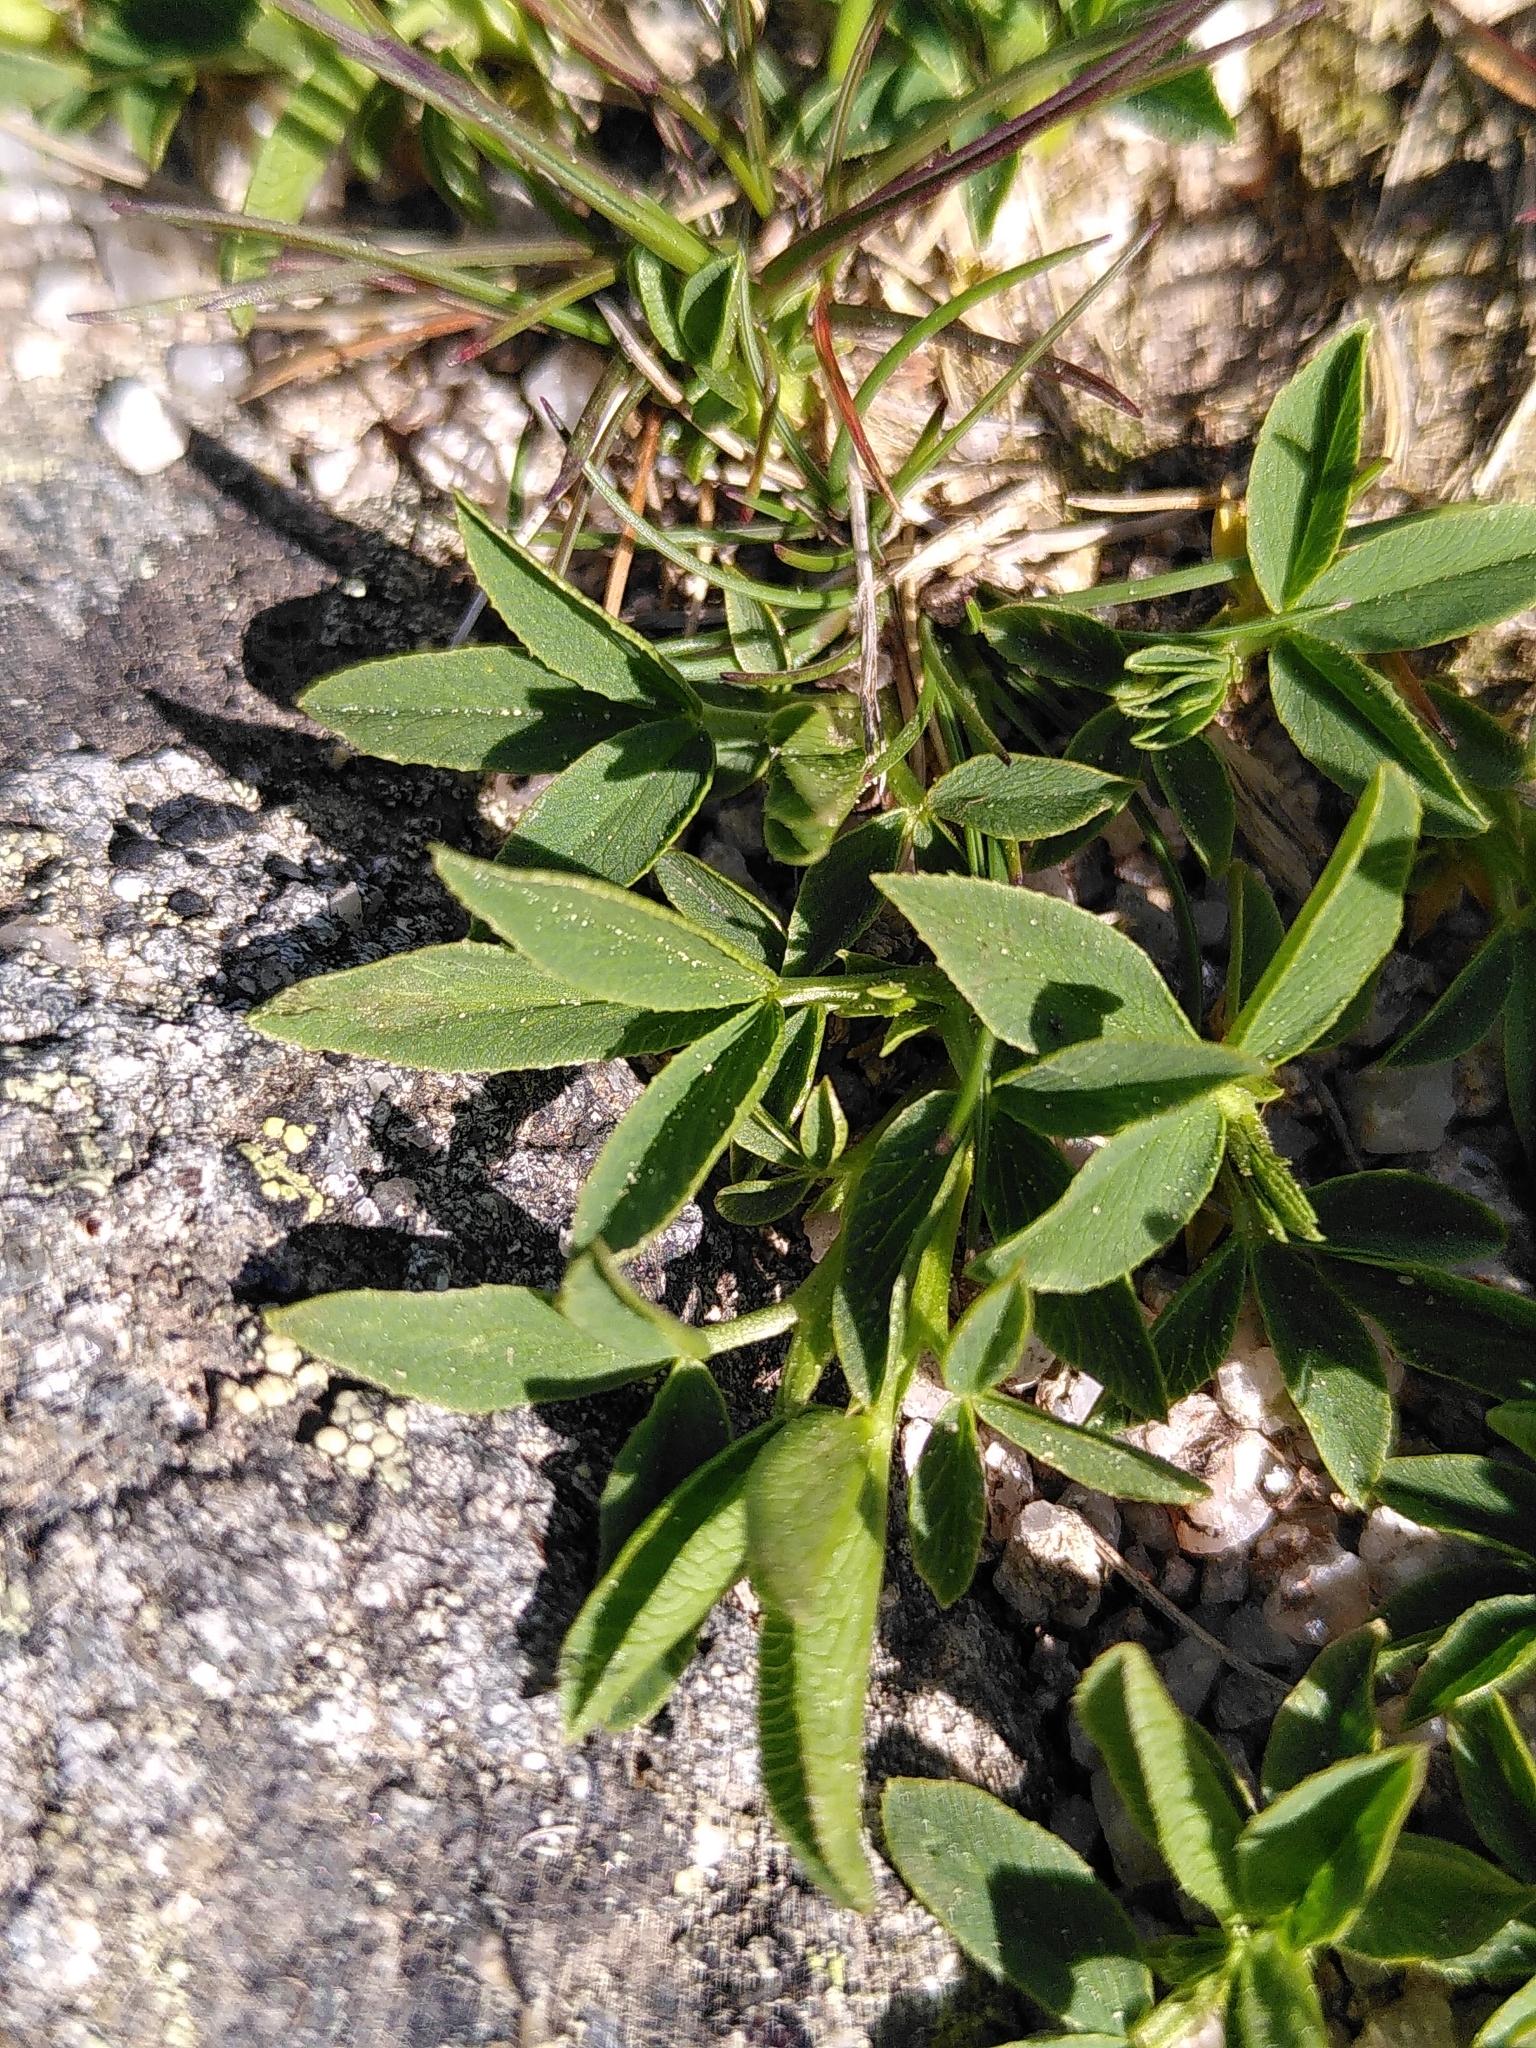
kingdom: Plantae
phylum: Tracheophyta
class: Magnoliopsida
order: Fabales
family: Fabaceae
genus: Trifolium
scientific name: Trifolium alpinum
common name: Alpine clover
